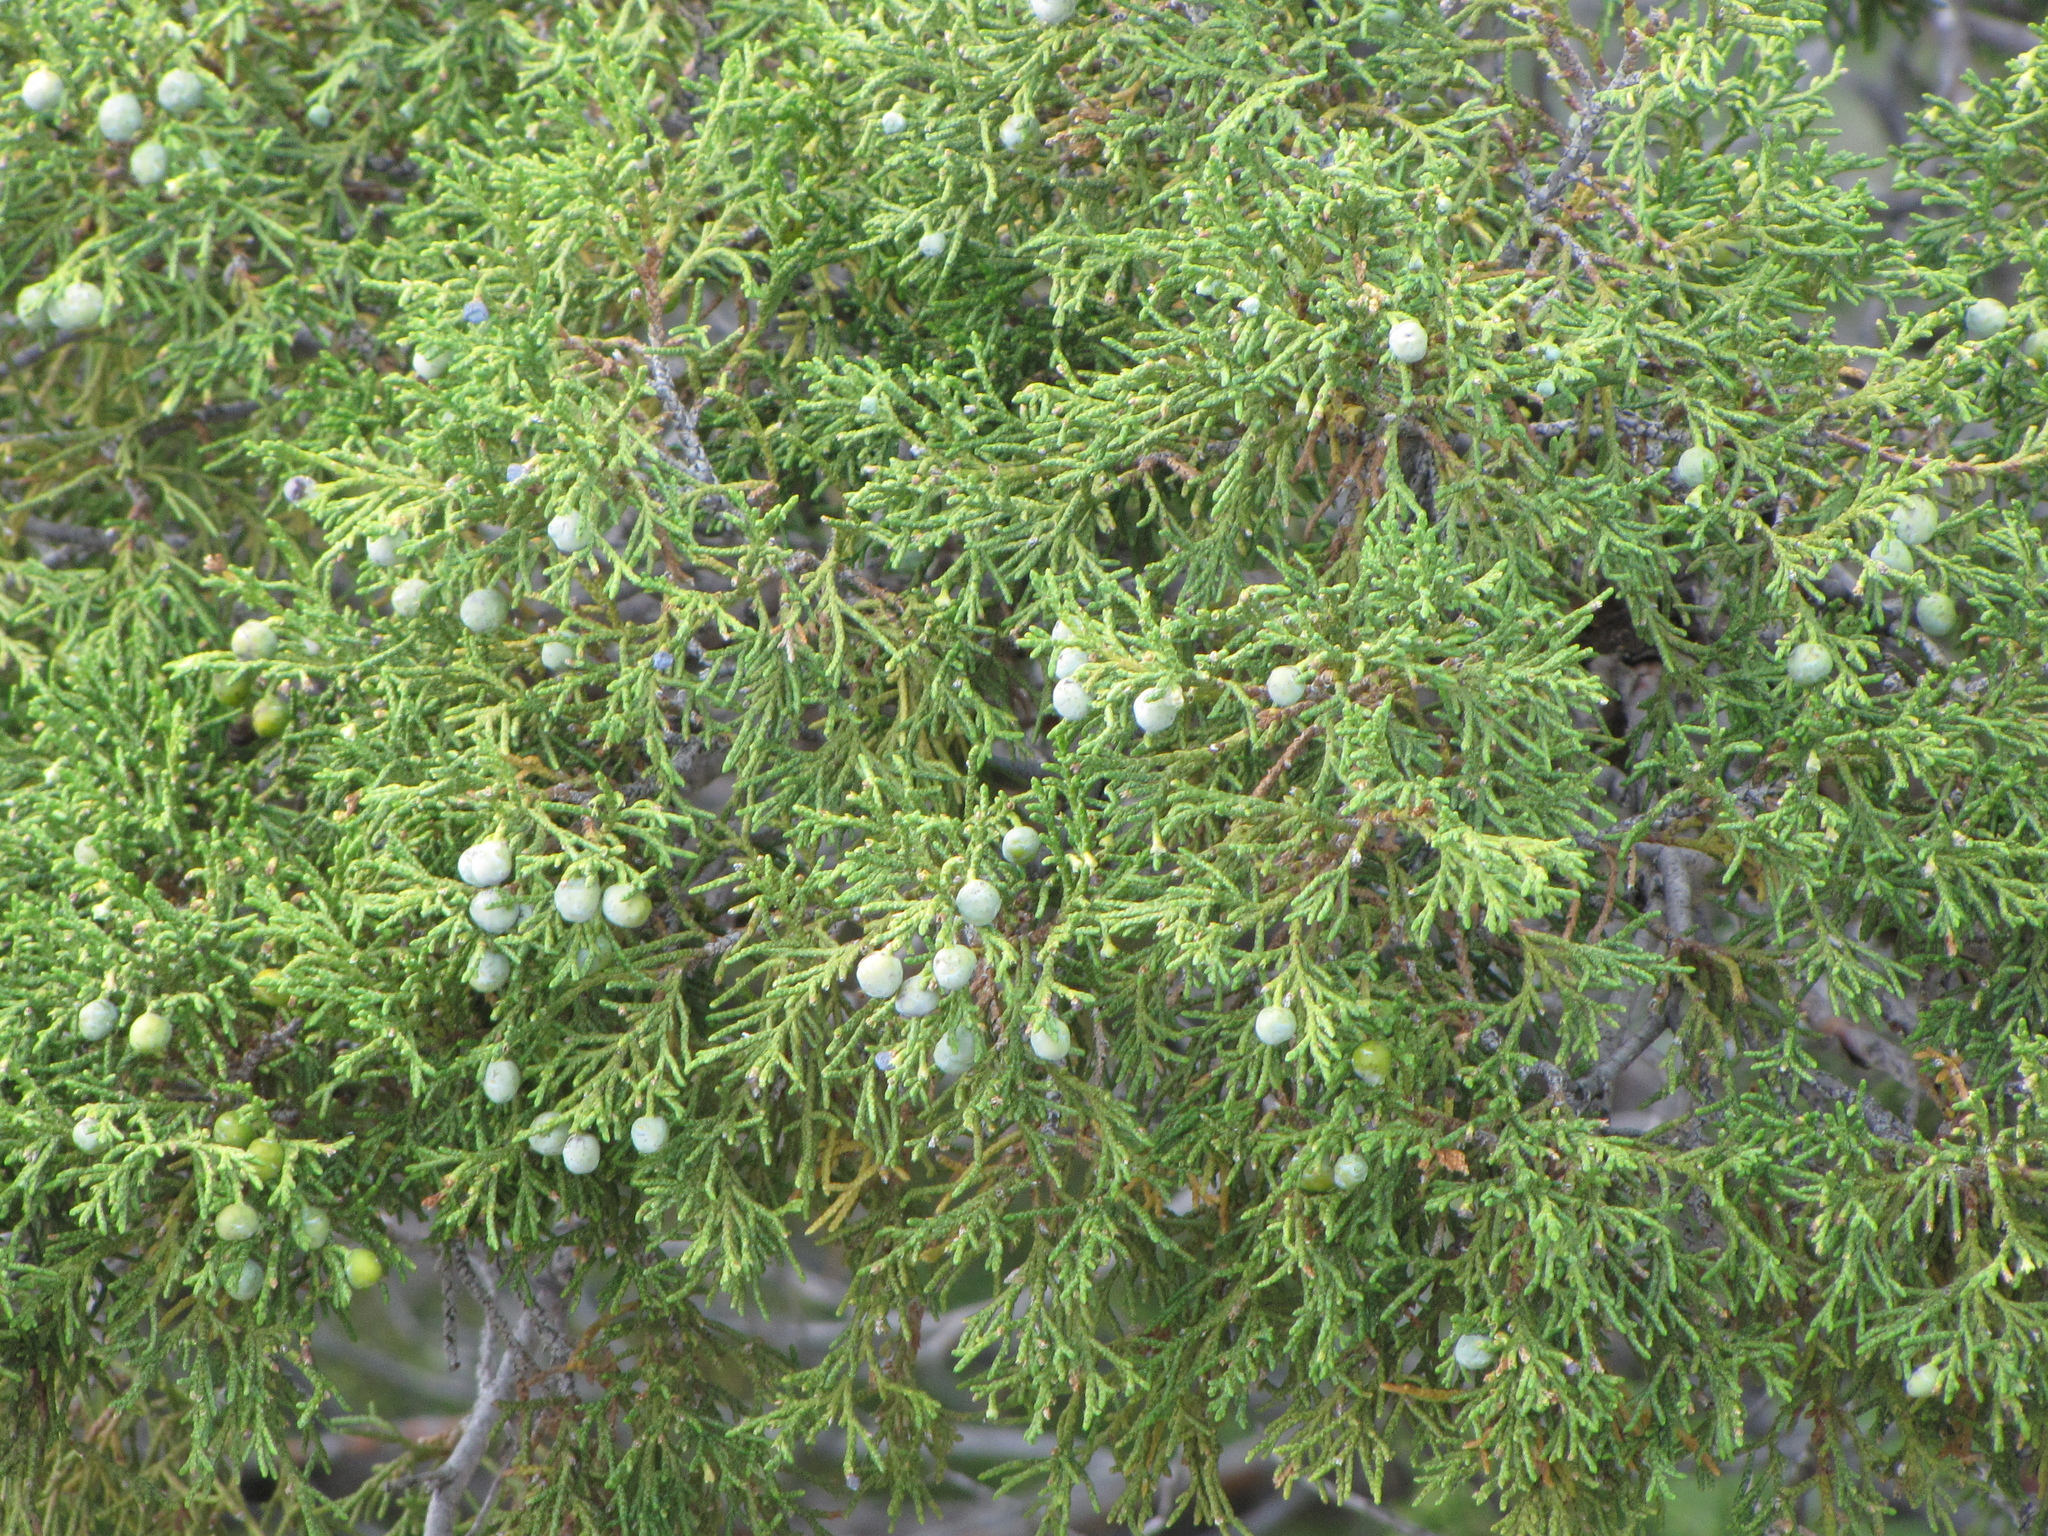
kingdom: Plantae
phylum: Tracheophyta
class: Pinopsida
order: Pinales
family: Cupressaceae
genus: Juniperus
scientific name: Juniperus scopulorum
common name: Rocky mountain juniper
